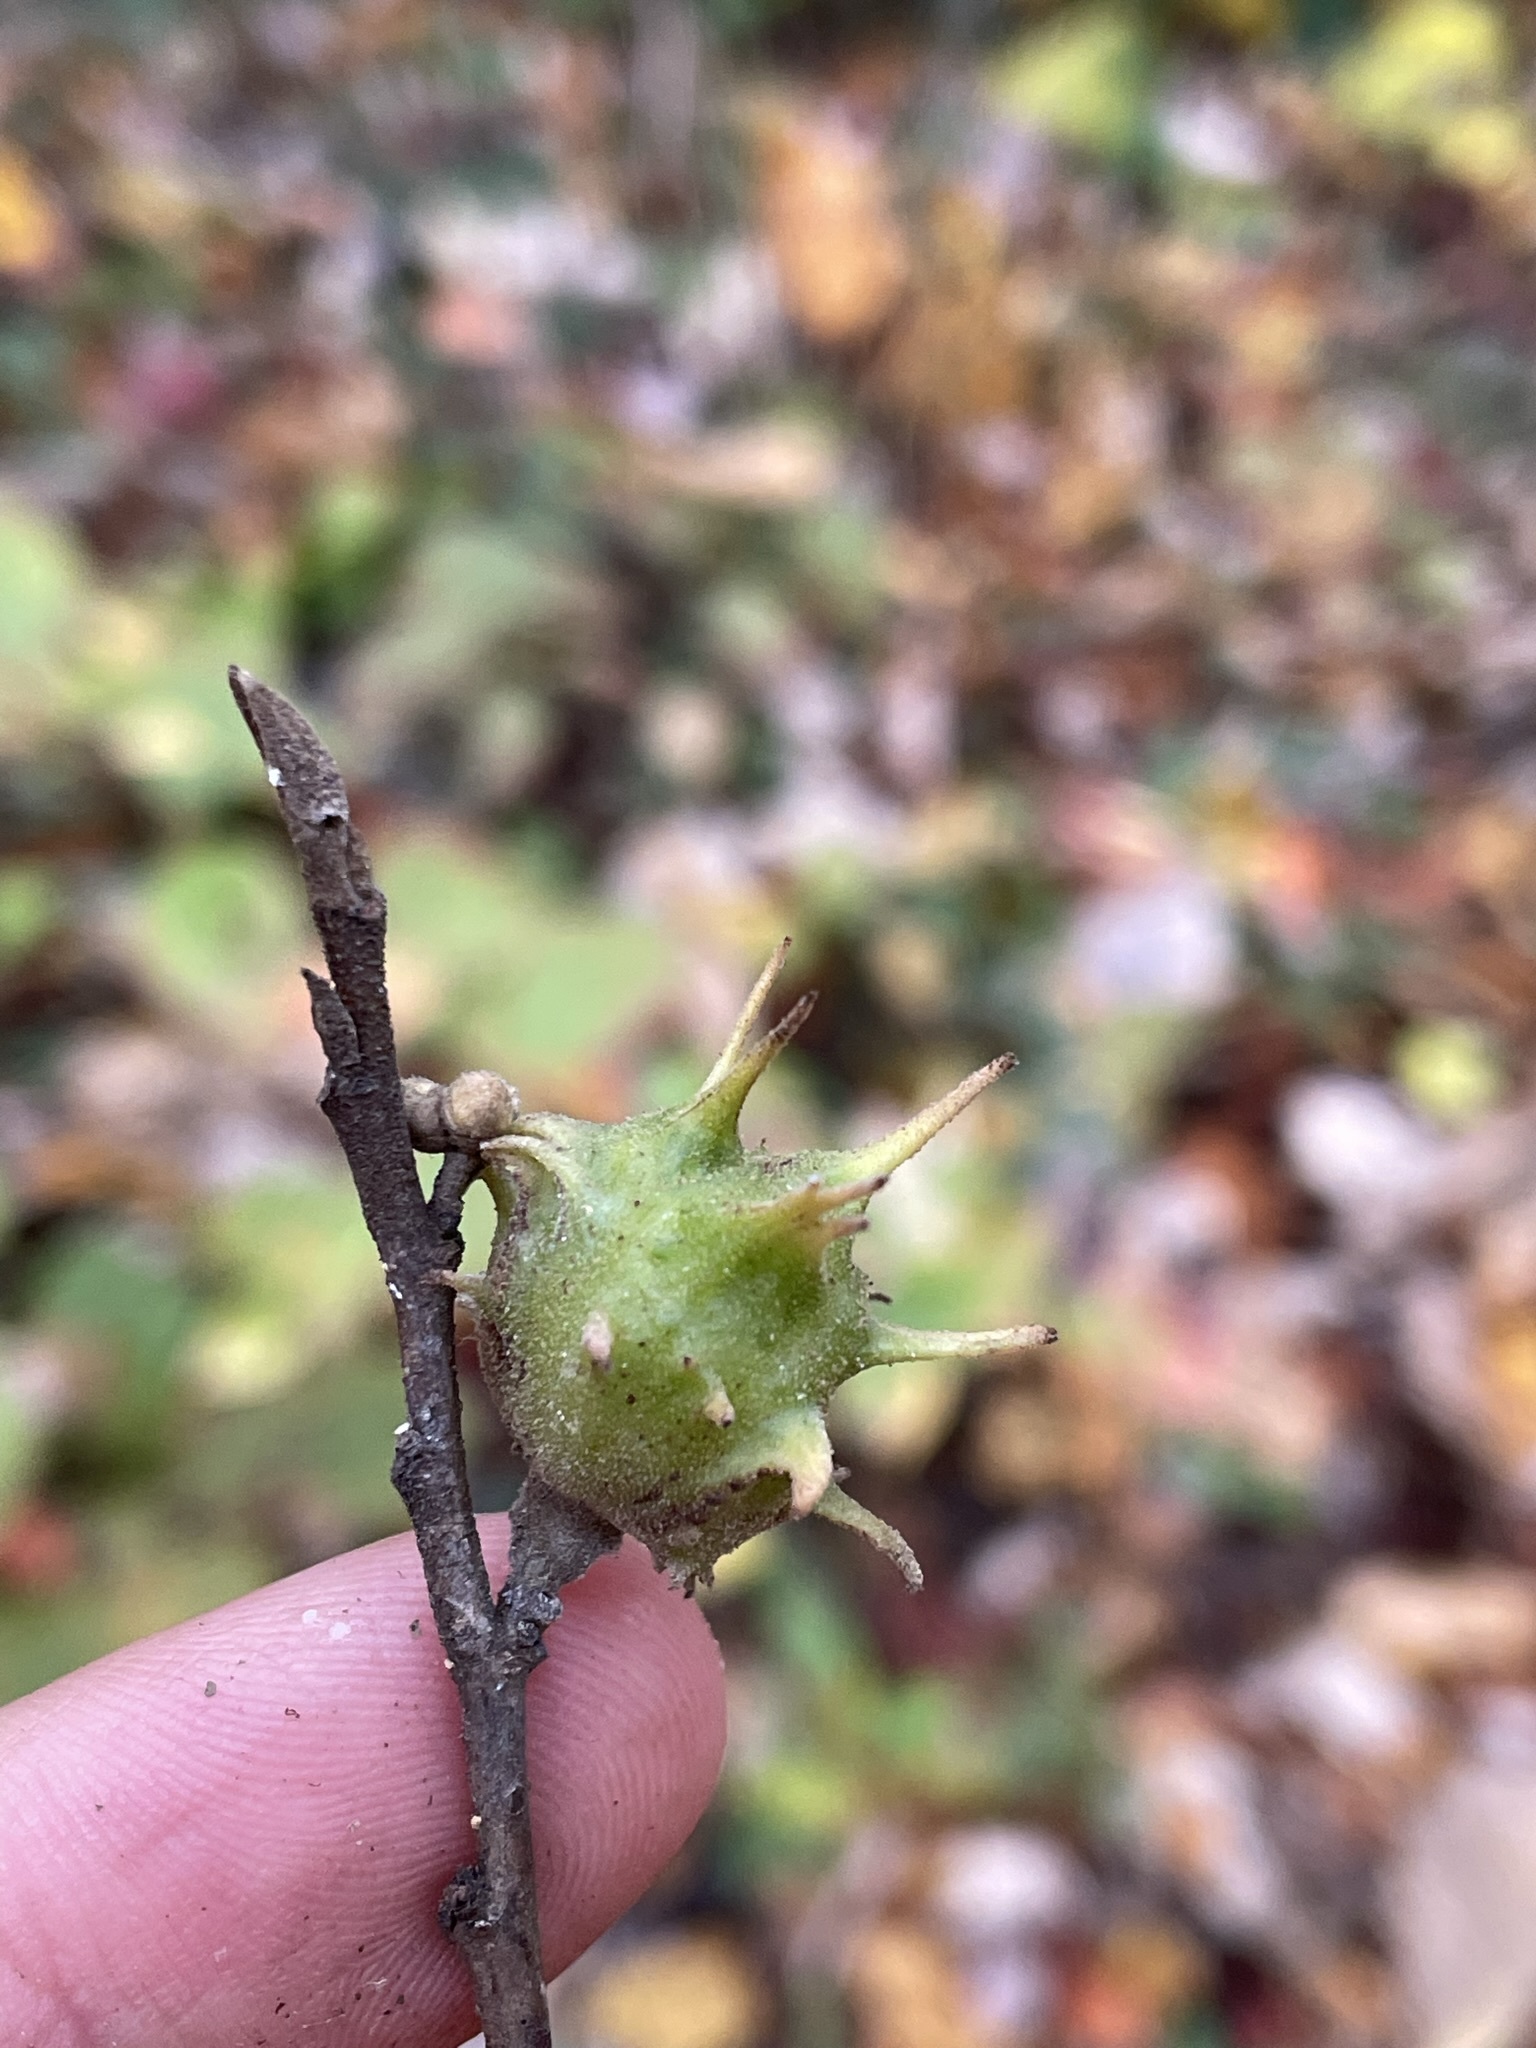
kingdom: Animalia
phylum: Arthropoda
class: Insecta
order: Hemiptera
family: Aphididae
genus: Hamamelistes
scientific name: Hamamelistes spinosus
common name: Witch hazel gall aphid
